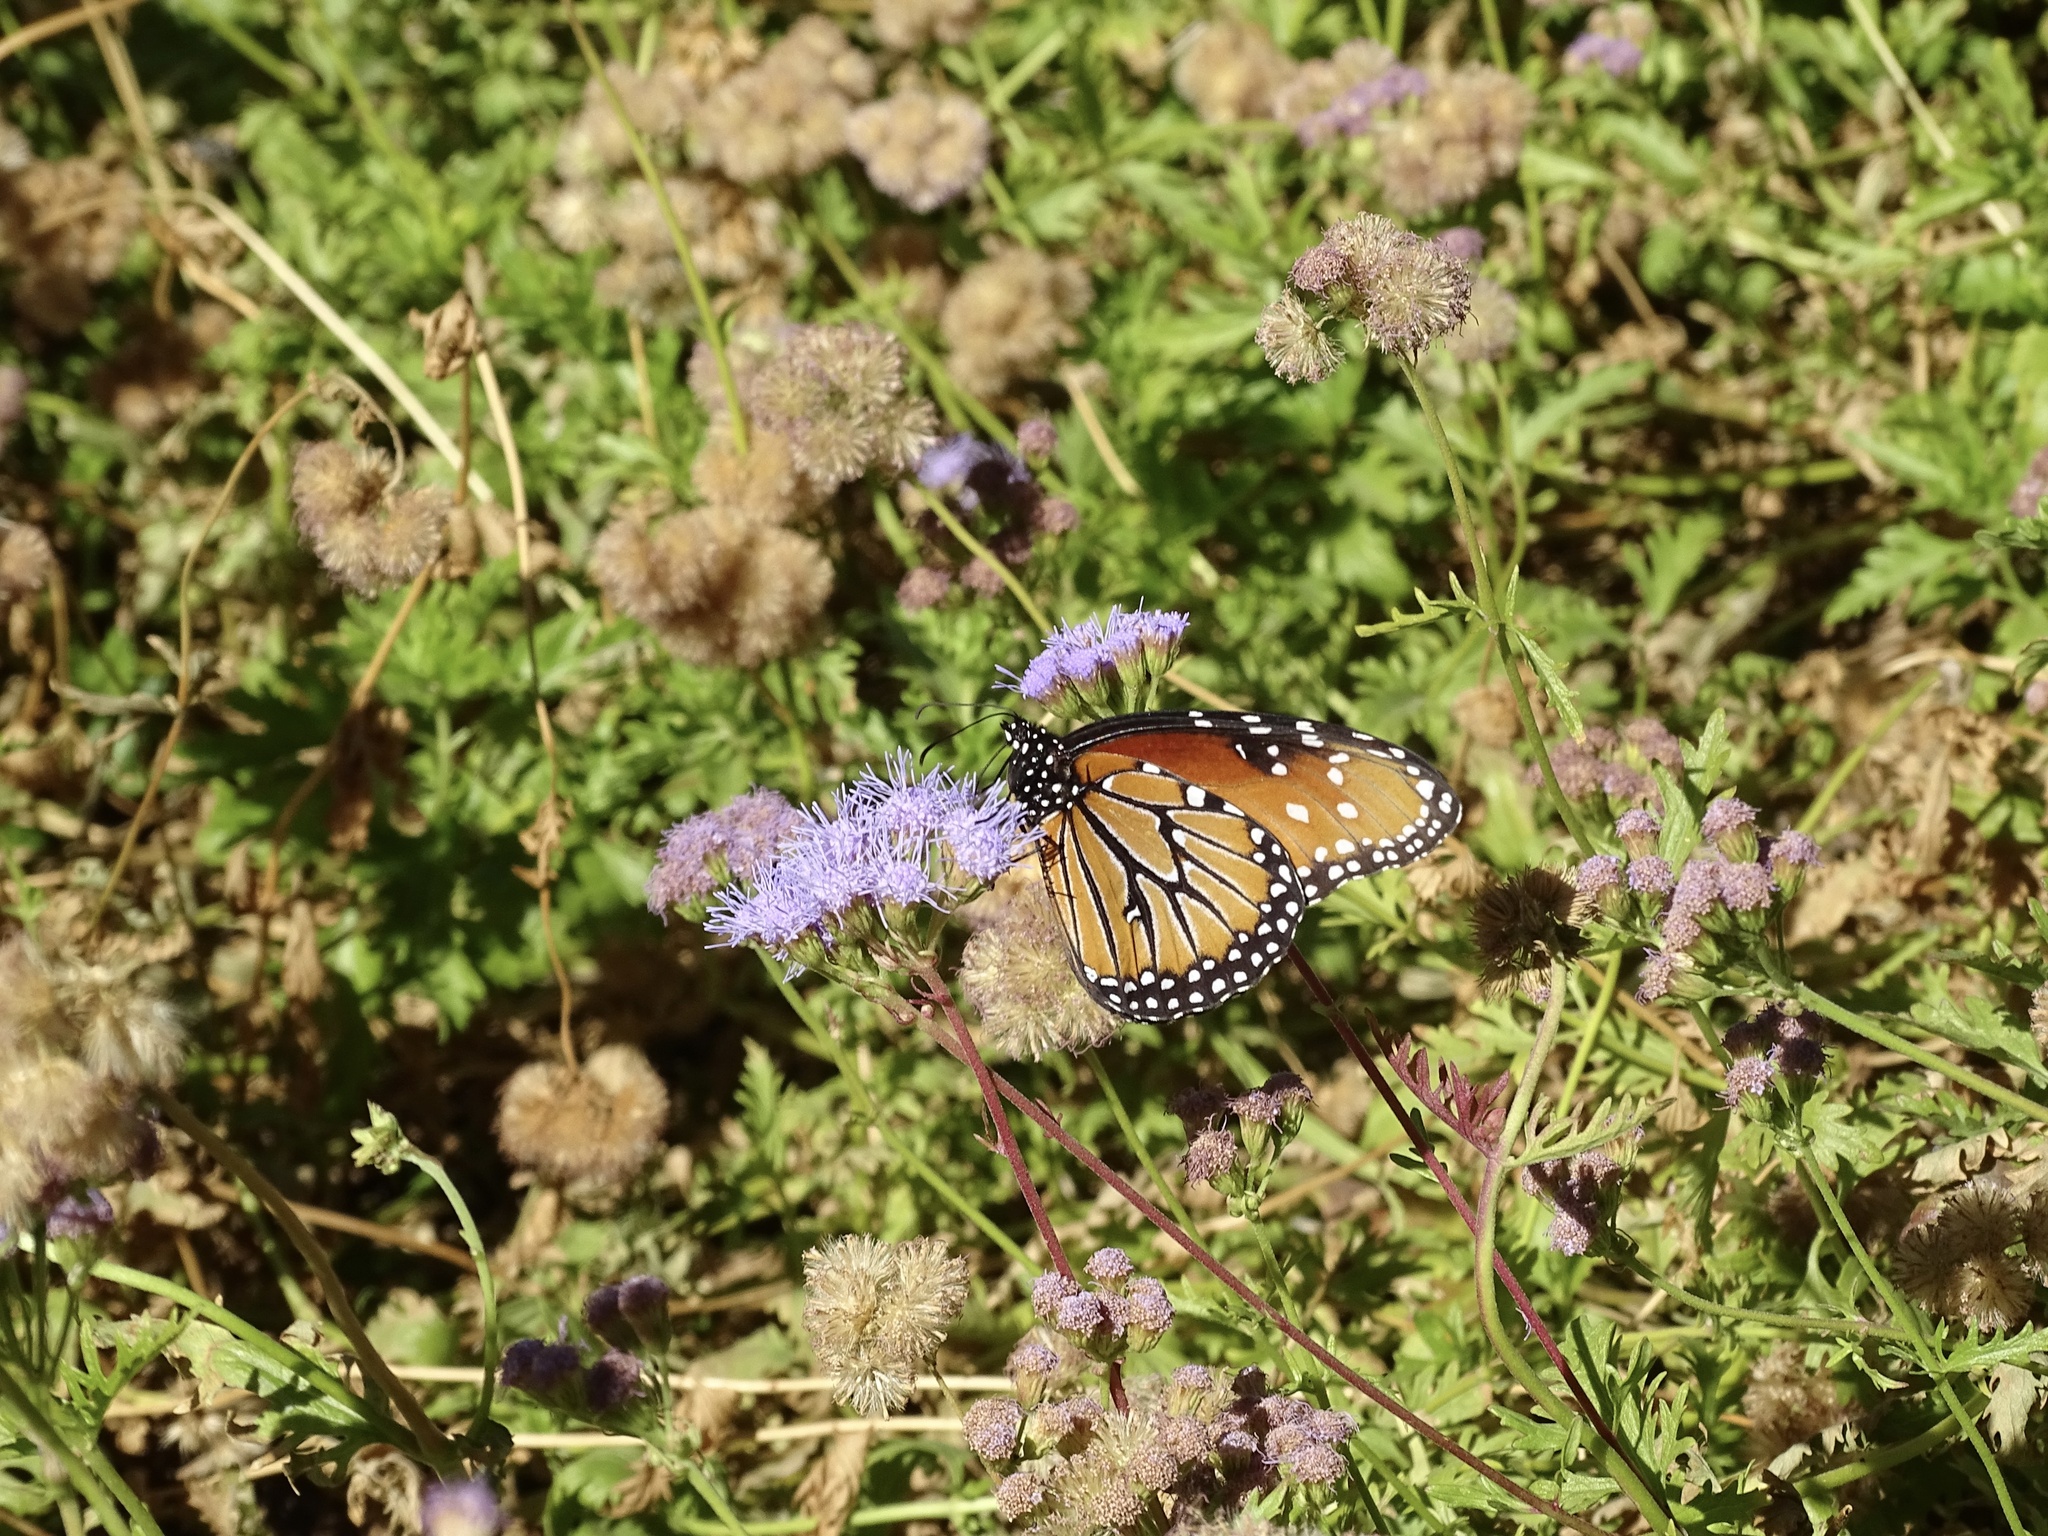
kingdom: Animalia
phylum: Arthropoda
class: Insecta
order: Lepidoptera
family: Nymphalidae
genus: Danaus
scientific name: Danaus gilippus
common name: Queen
